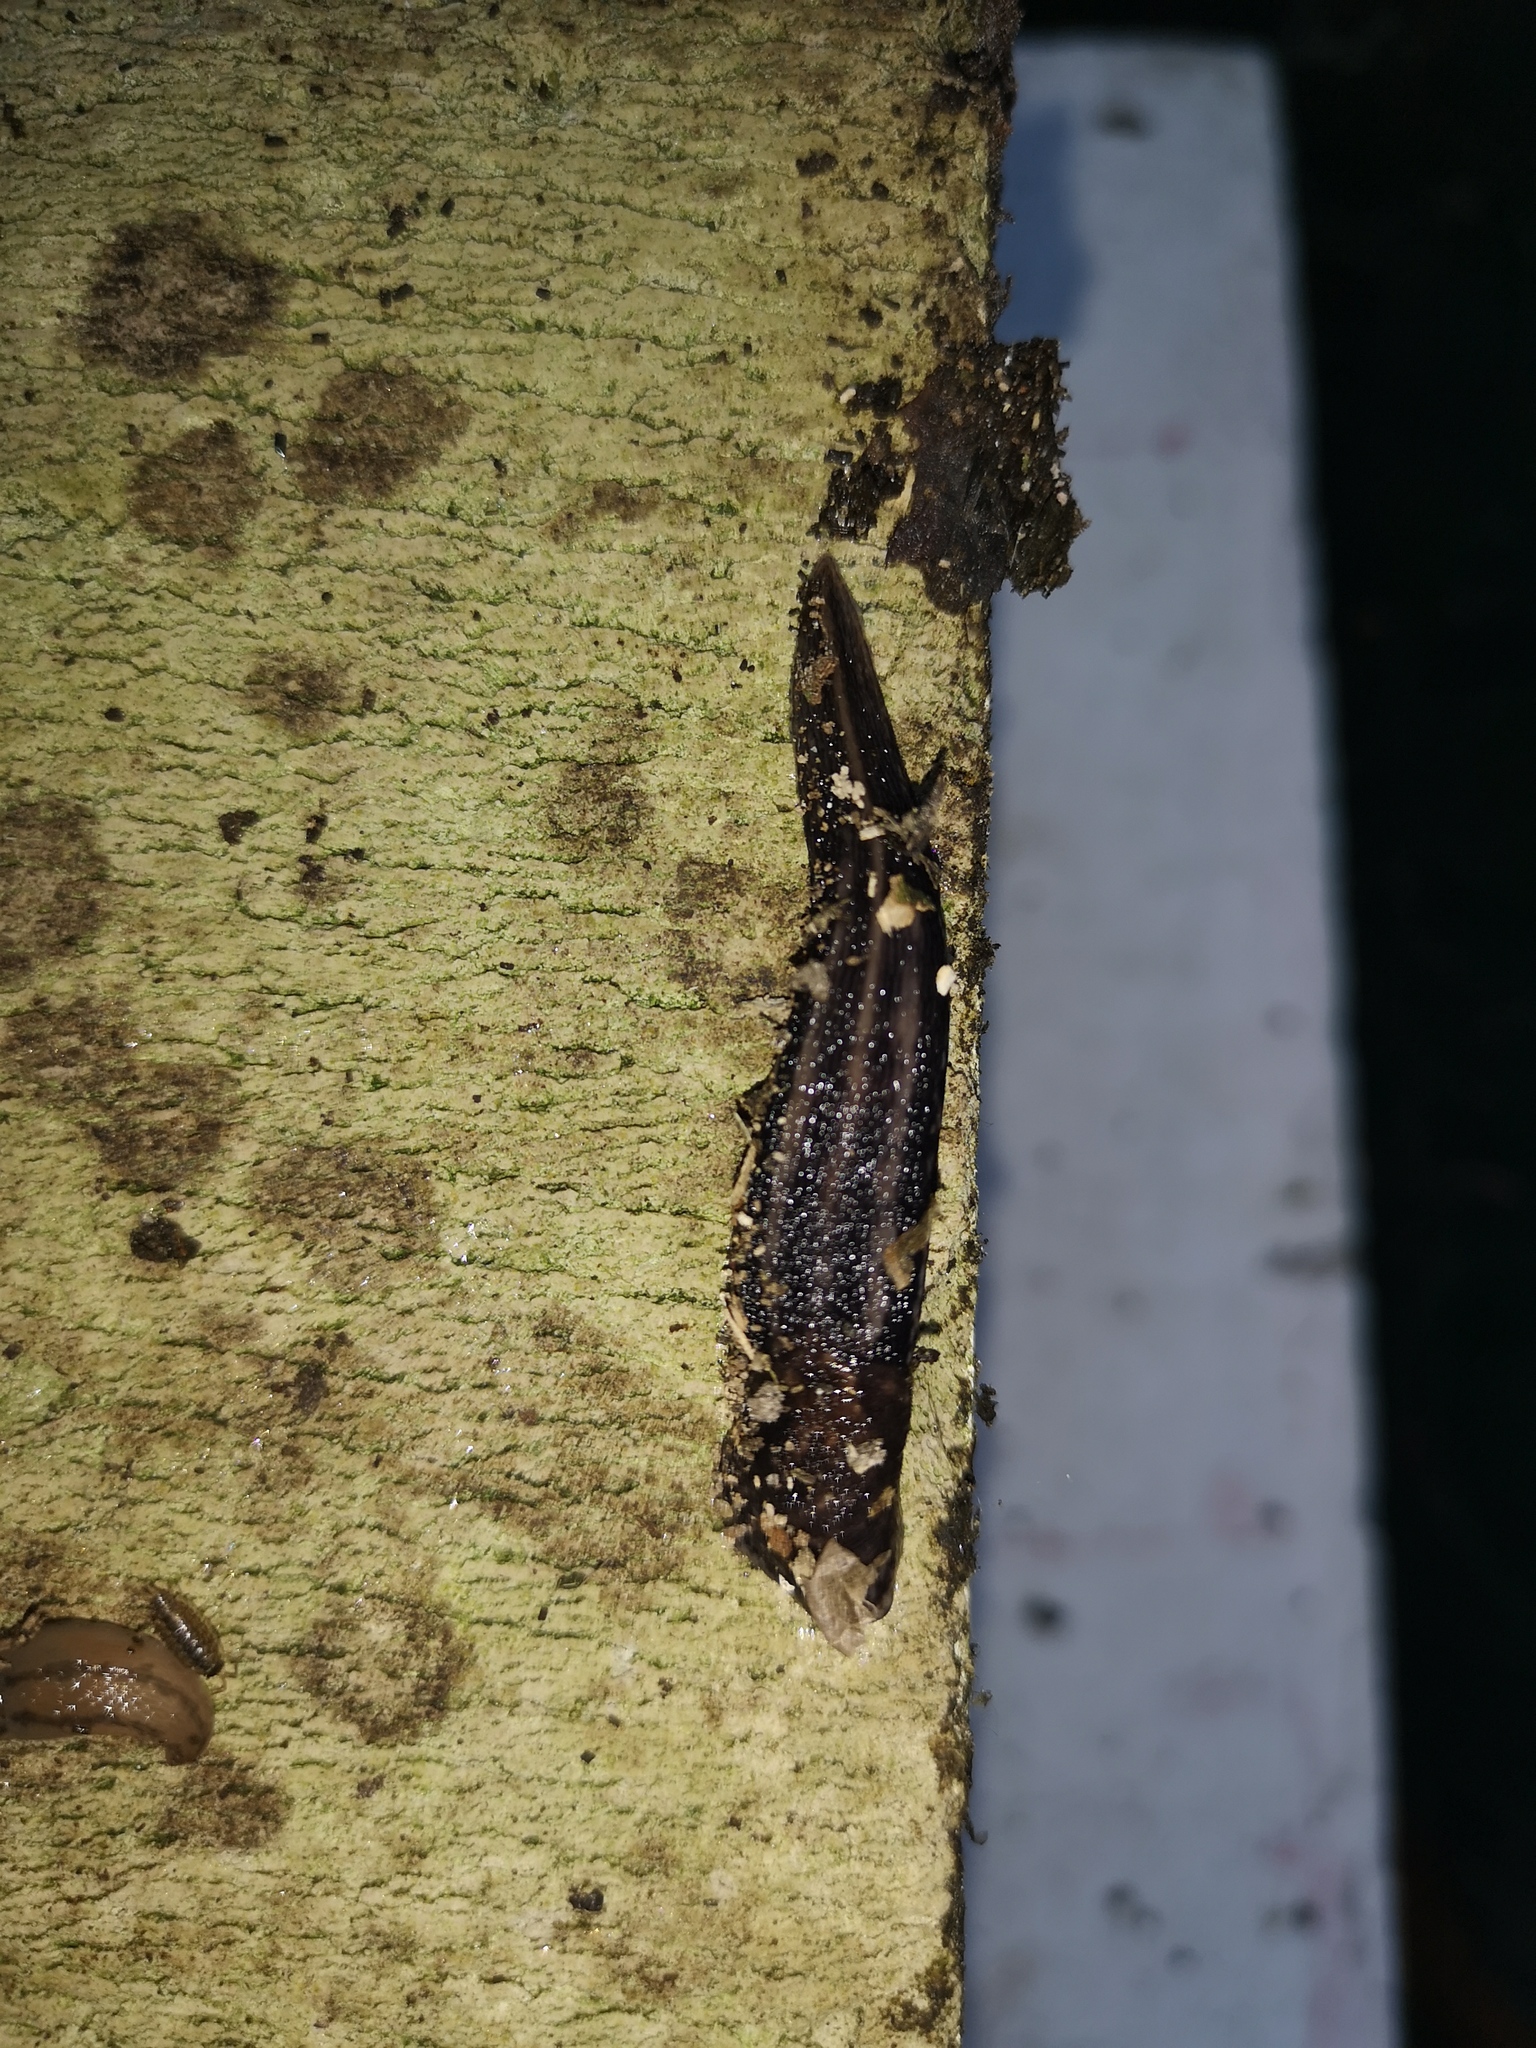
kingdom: Animalia
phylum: Mollusca
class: Gastropoda
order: Stylommatophora
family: Limacidae
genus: Limax
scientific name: Limax maximus
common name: Great grey slug
